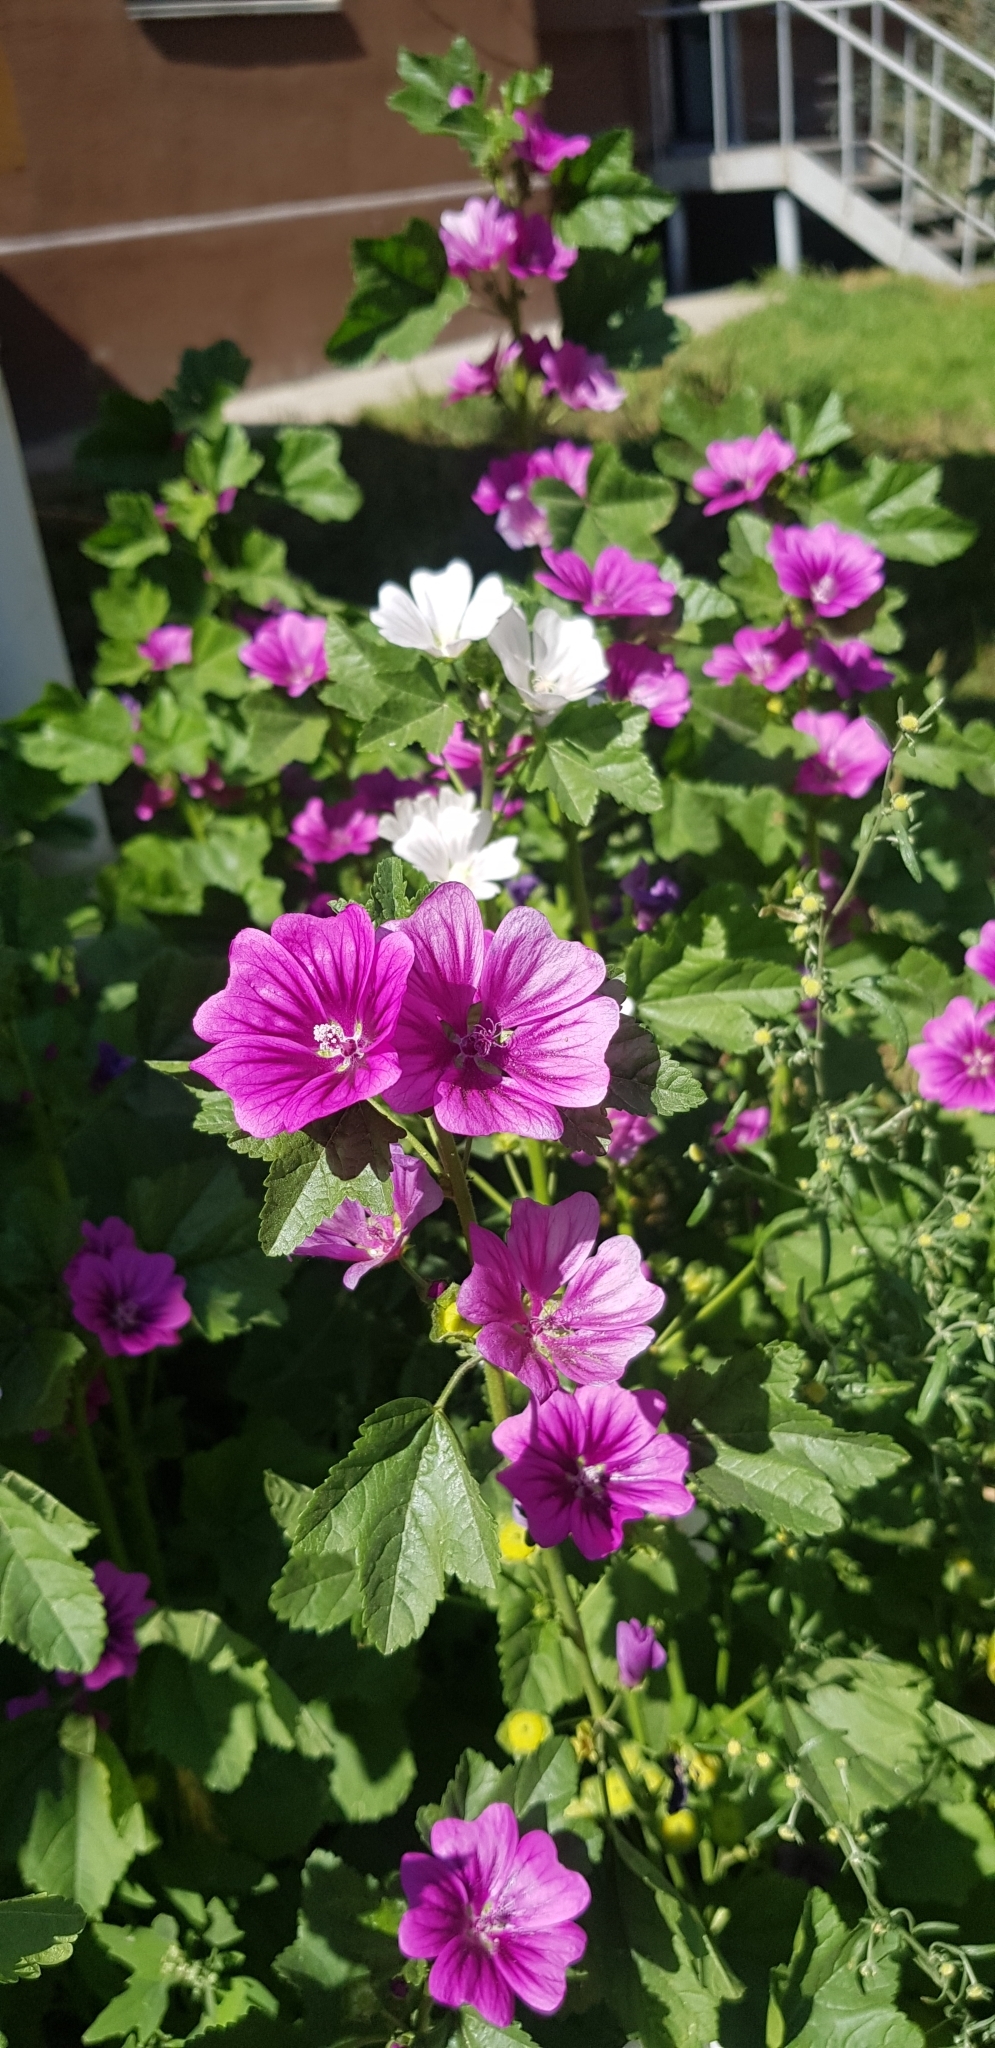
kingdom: Plantae
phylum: Tracheophyta
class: Magnoliopsida
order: Malvales
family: Malvaceae
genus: Malva
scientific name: Malva sylvestris
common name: Common mallow
